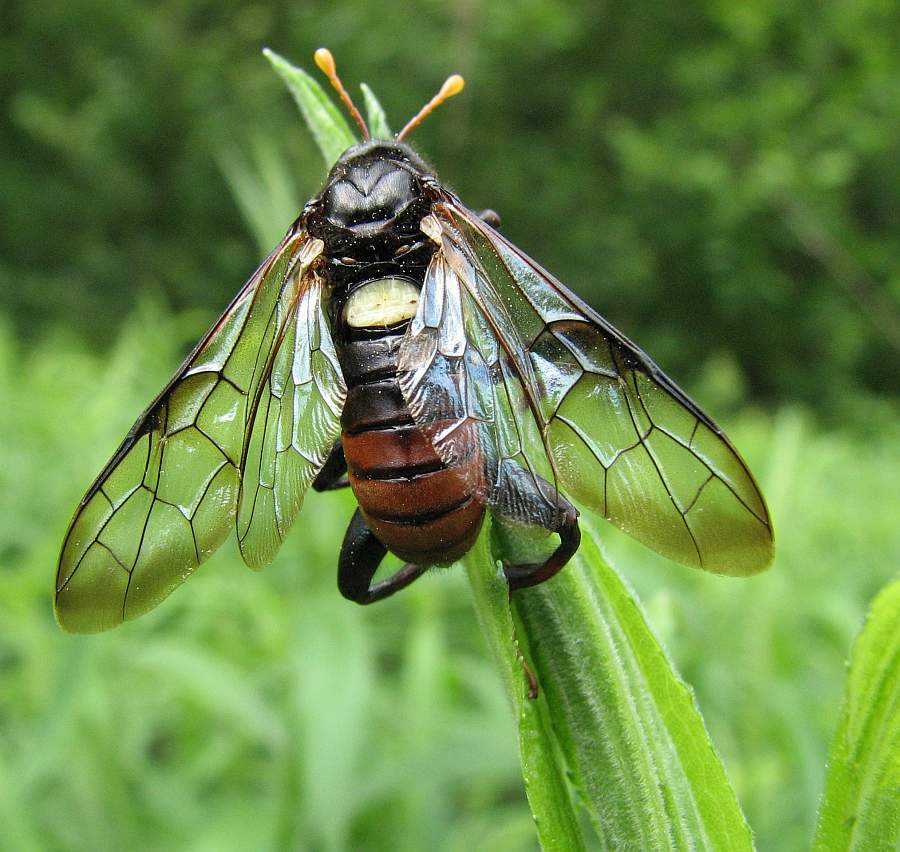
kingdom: Animalia
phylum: Arthropoda
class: Insecta
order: Hymenoptera
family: Cimbicidae
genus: Cimbex
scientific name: Cimbex americana
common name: Elm sawfly
